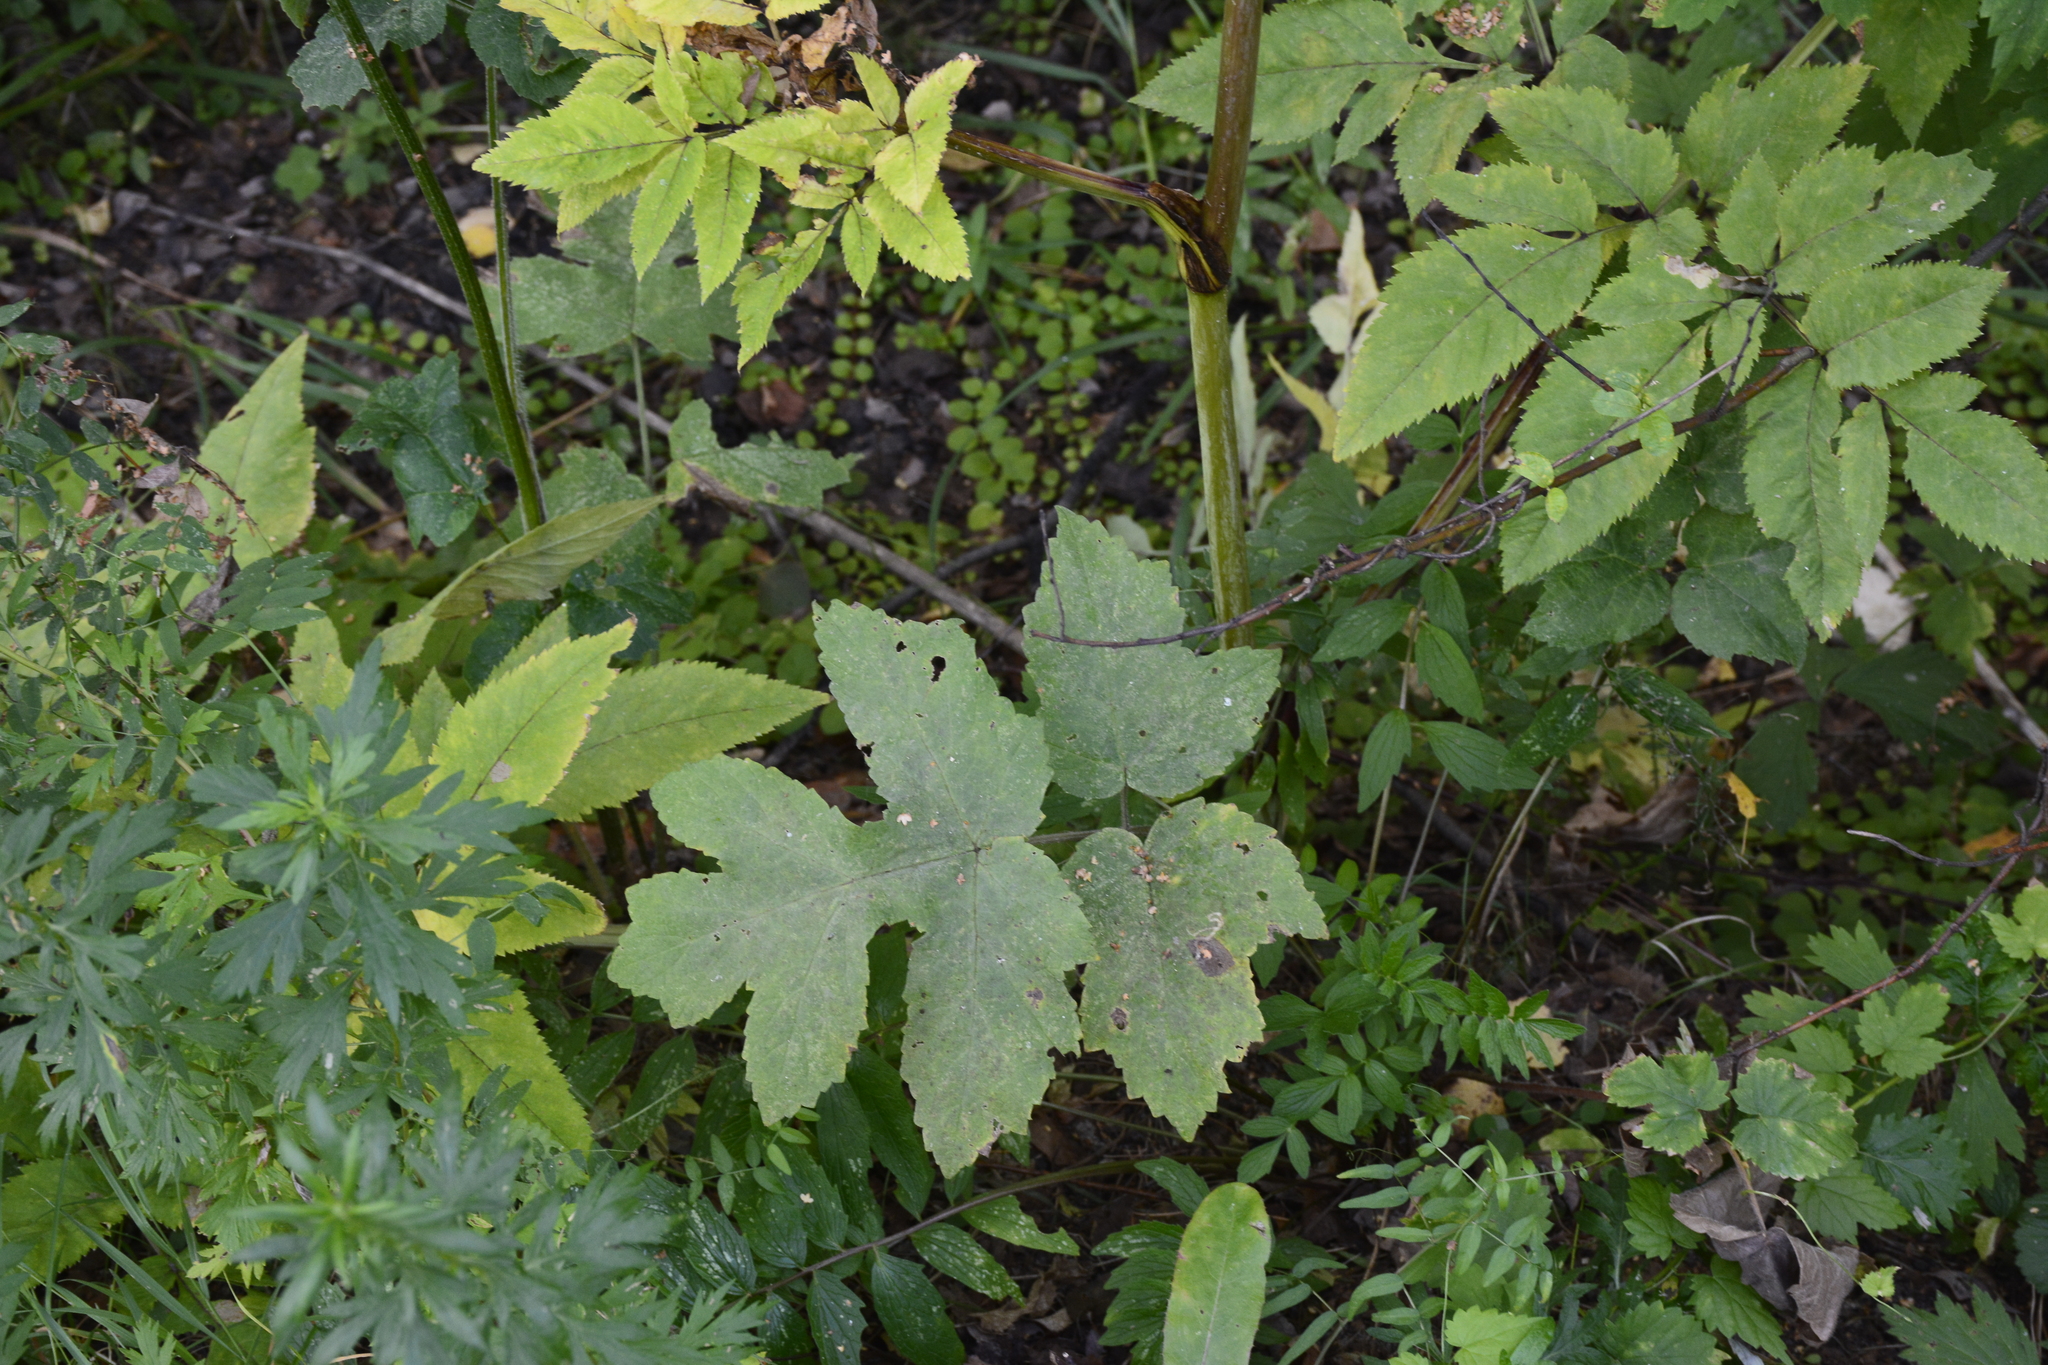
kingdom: Plantae
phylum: Tracheophyta
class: Magnoliopsida
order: Apiales
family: Apiaceae
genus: Angelica
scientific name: Angelica sylvestris
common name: Wild angelica
